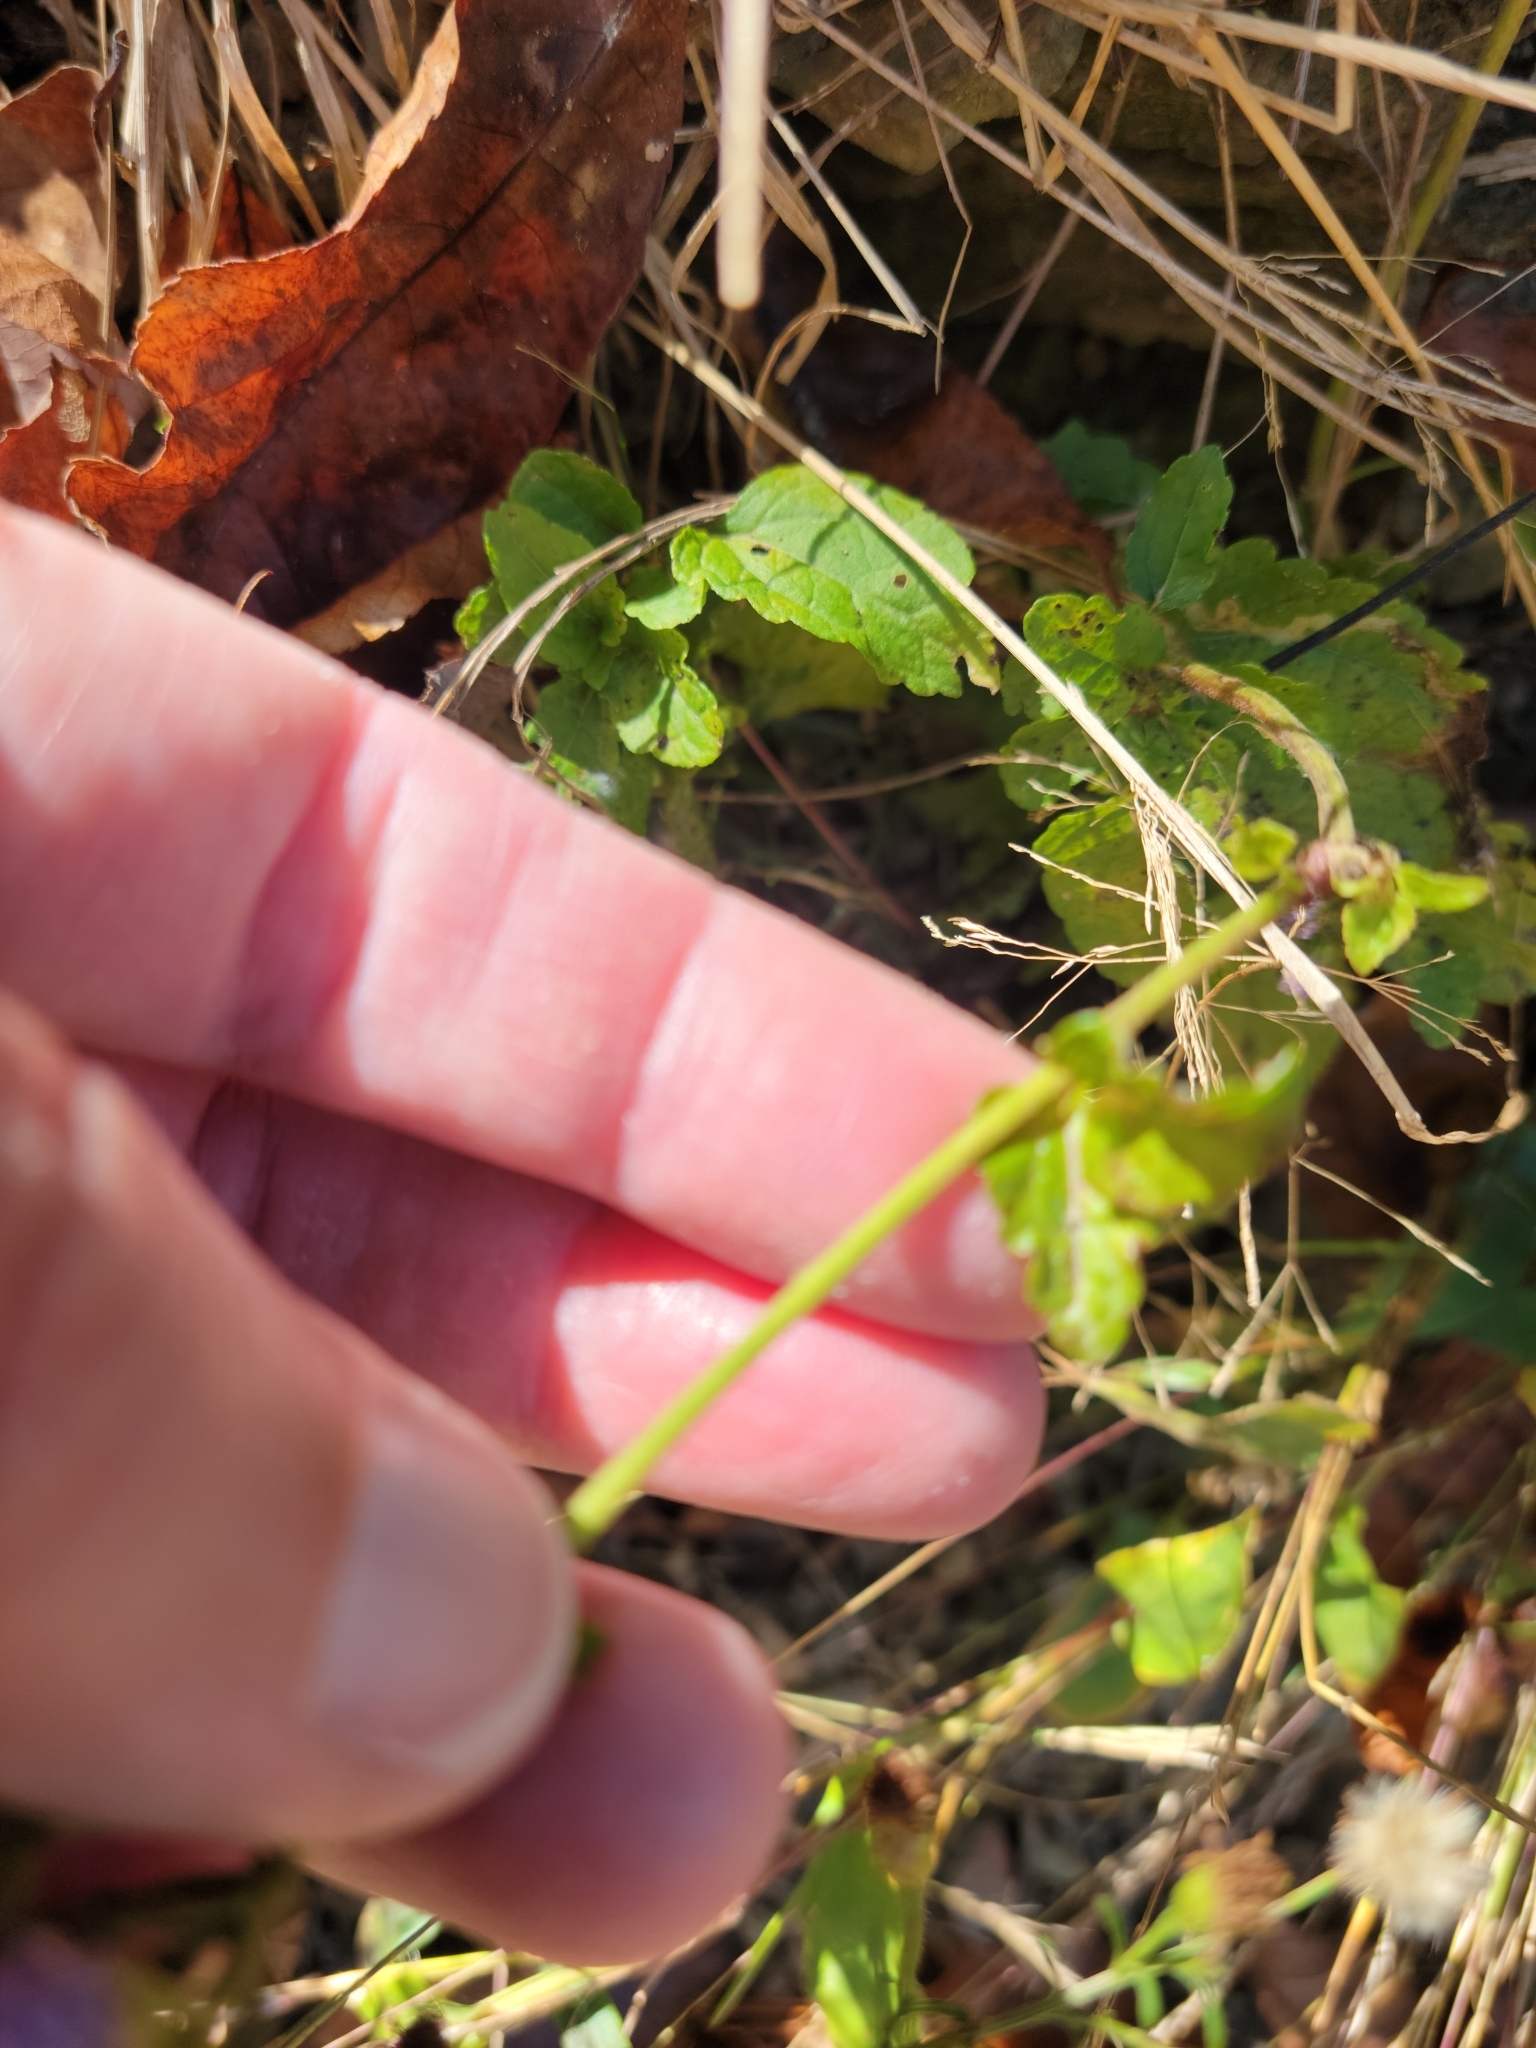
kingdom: Plantae
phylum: Tracheophyta
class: Magnoliopsida
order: Asterales
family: Asteraceae
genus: Conoclinium
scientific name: Conoclinium coelestinum
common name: Blue mistflower
